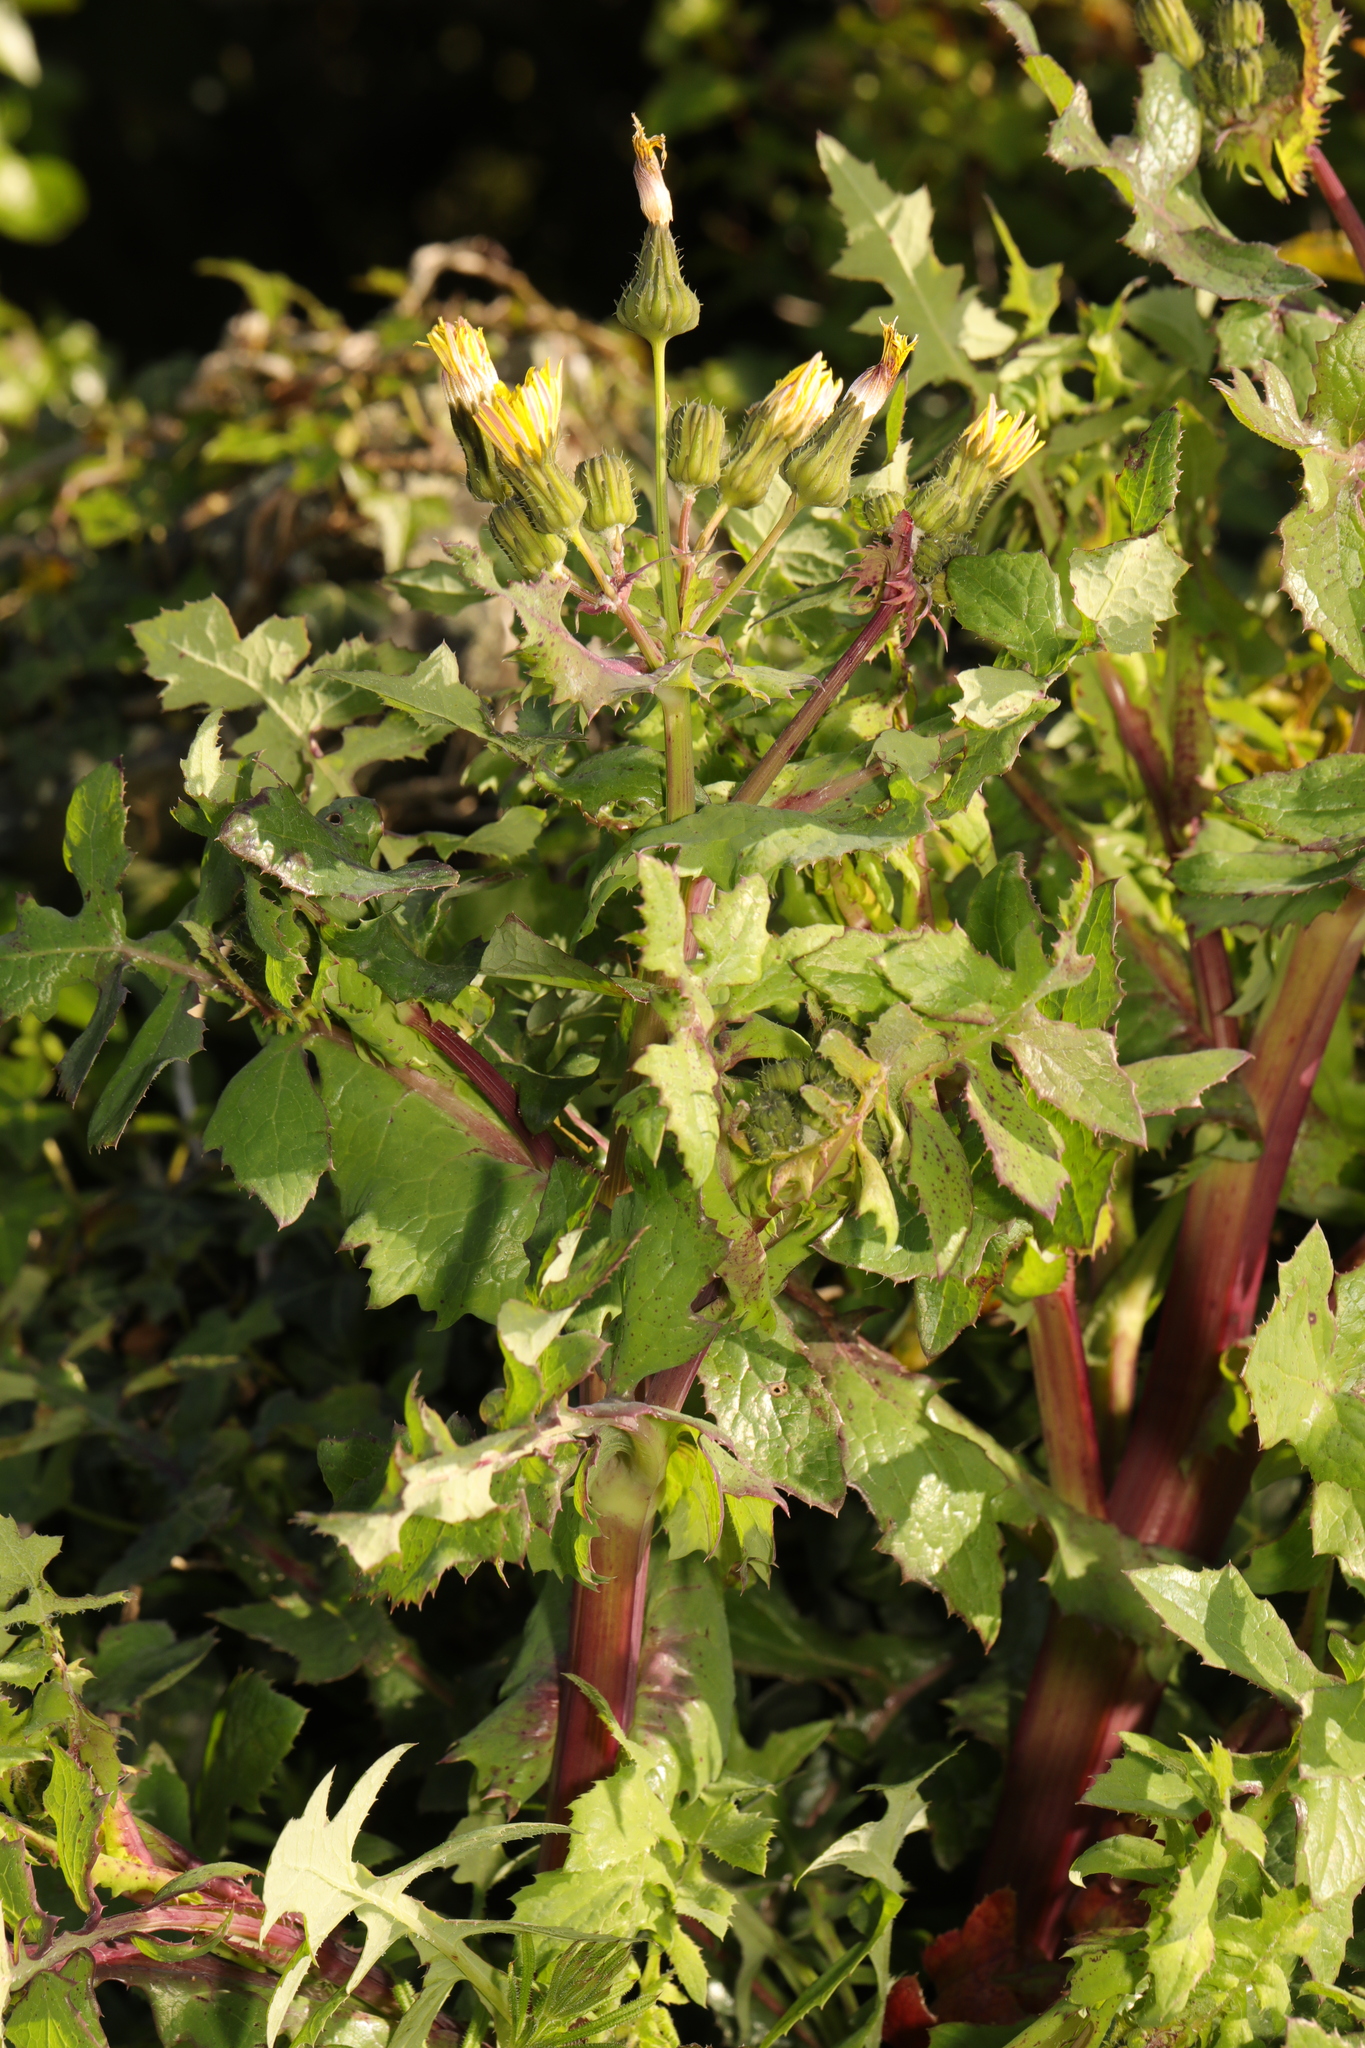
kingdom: Plantae
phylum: Tracheophyta
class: Magnoliopsida
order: Asterales
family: Asteraceae
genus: Sonchus
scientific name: Sonchus oleraceus
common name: Common sowthistle
